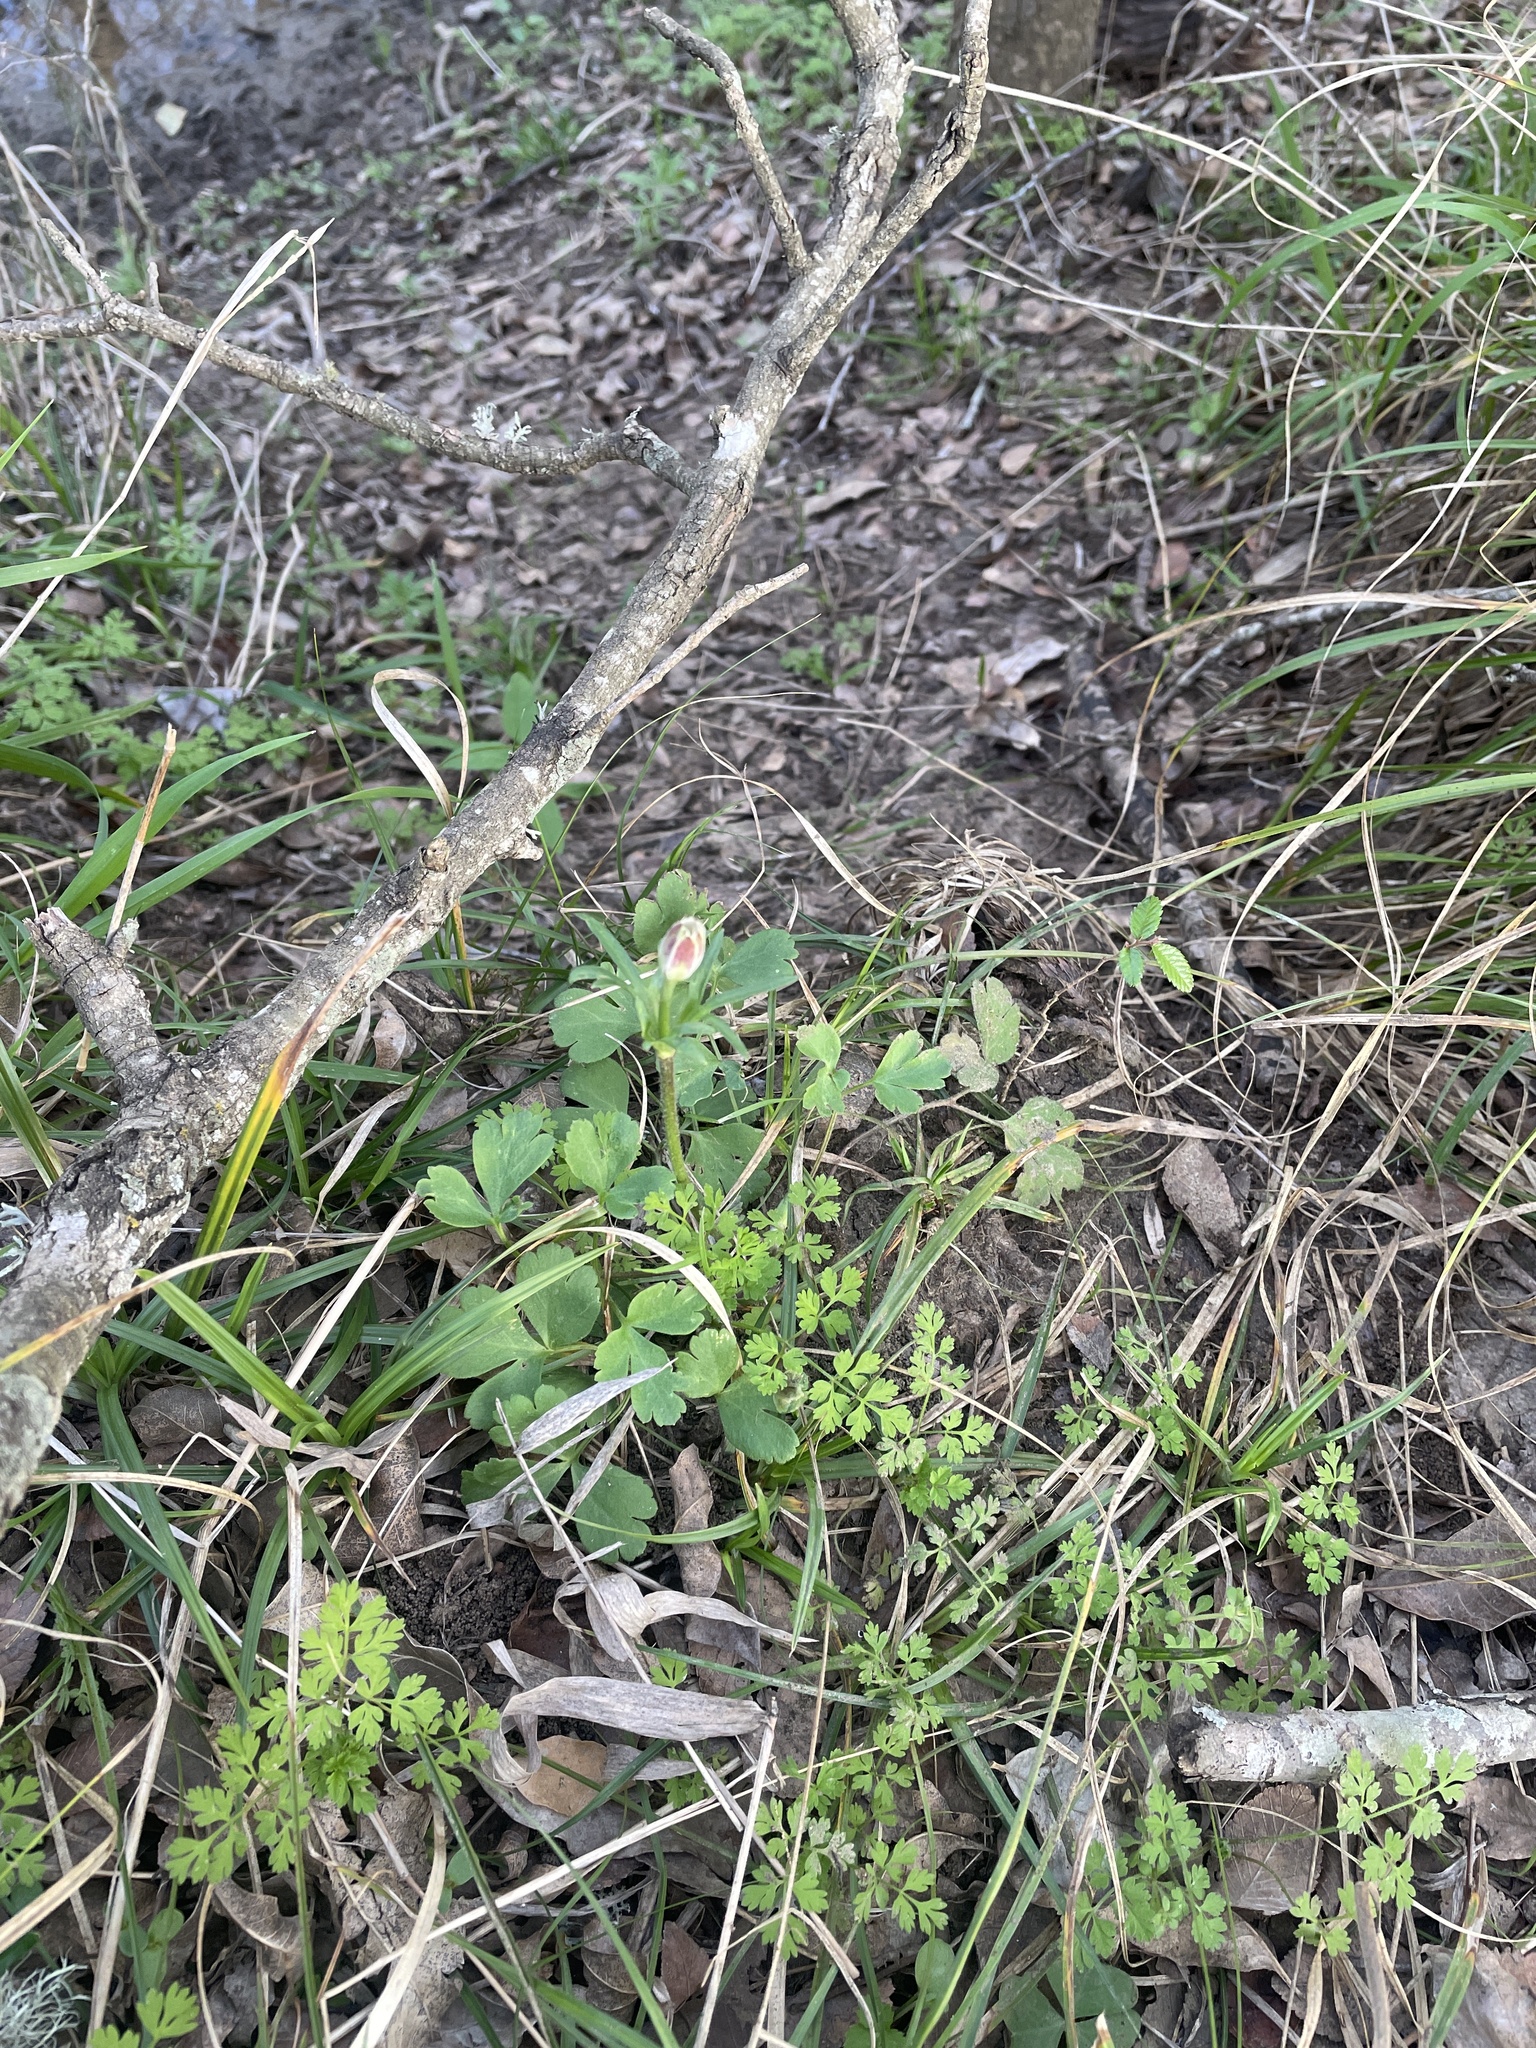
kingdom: Plantae
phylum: Tracheophyta
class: Magnoliopsida
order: Ranunculales
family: Ranunculaceae
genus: Anemone
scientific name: Anemone berlandieri
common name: Ten-petal anemone
